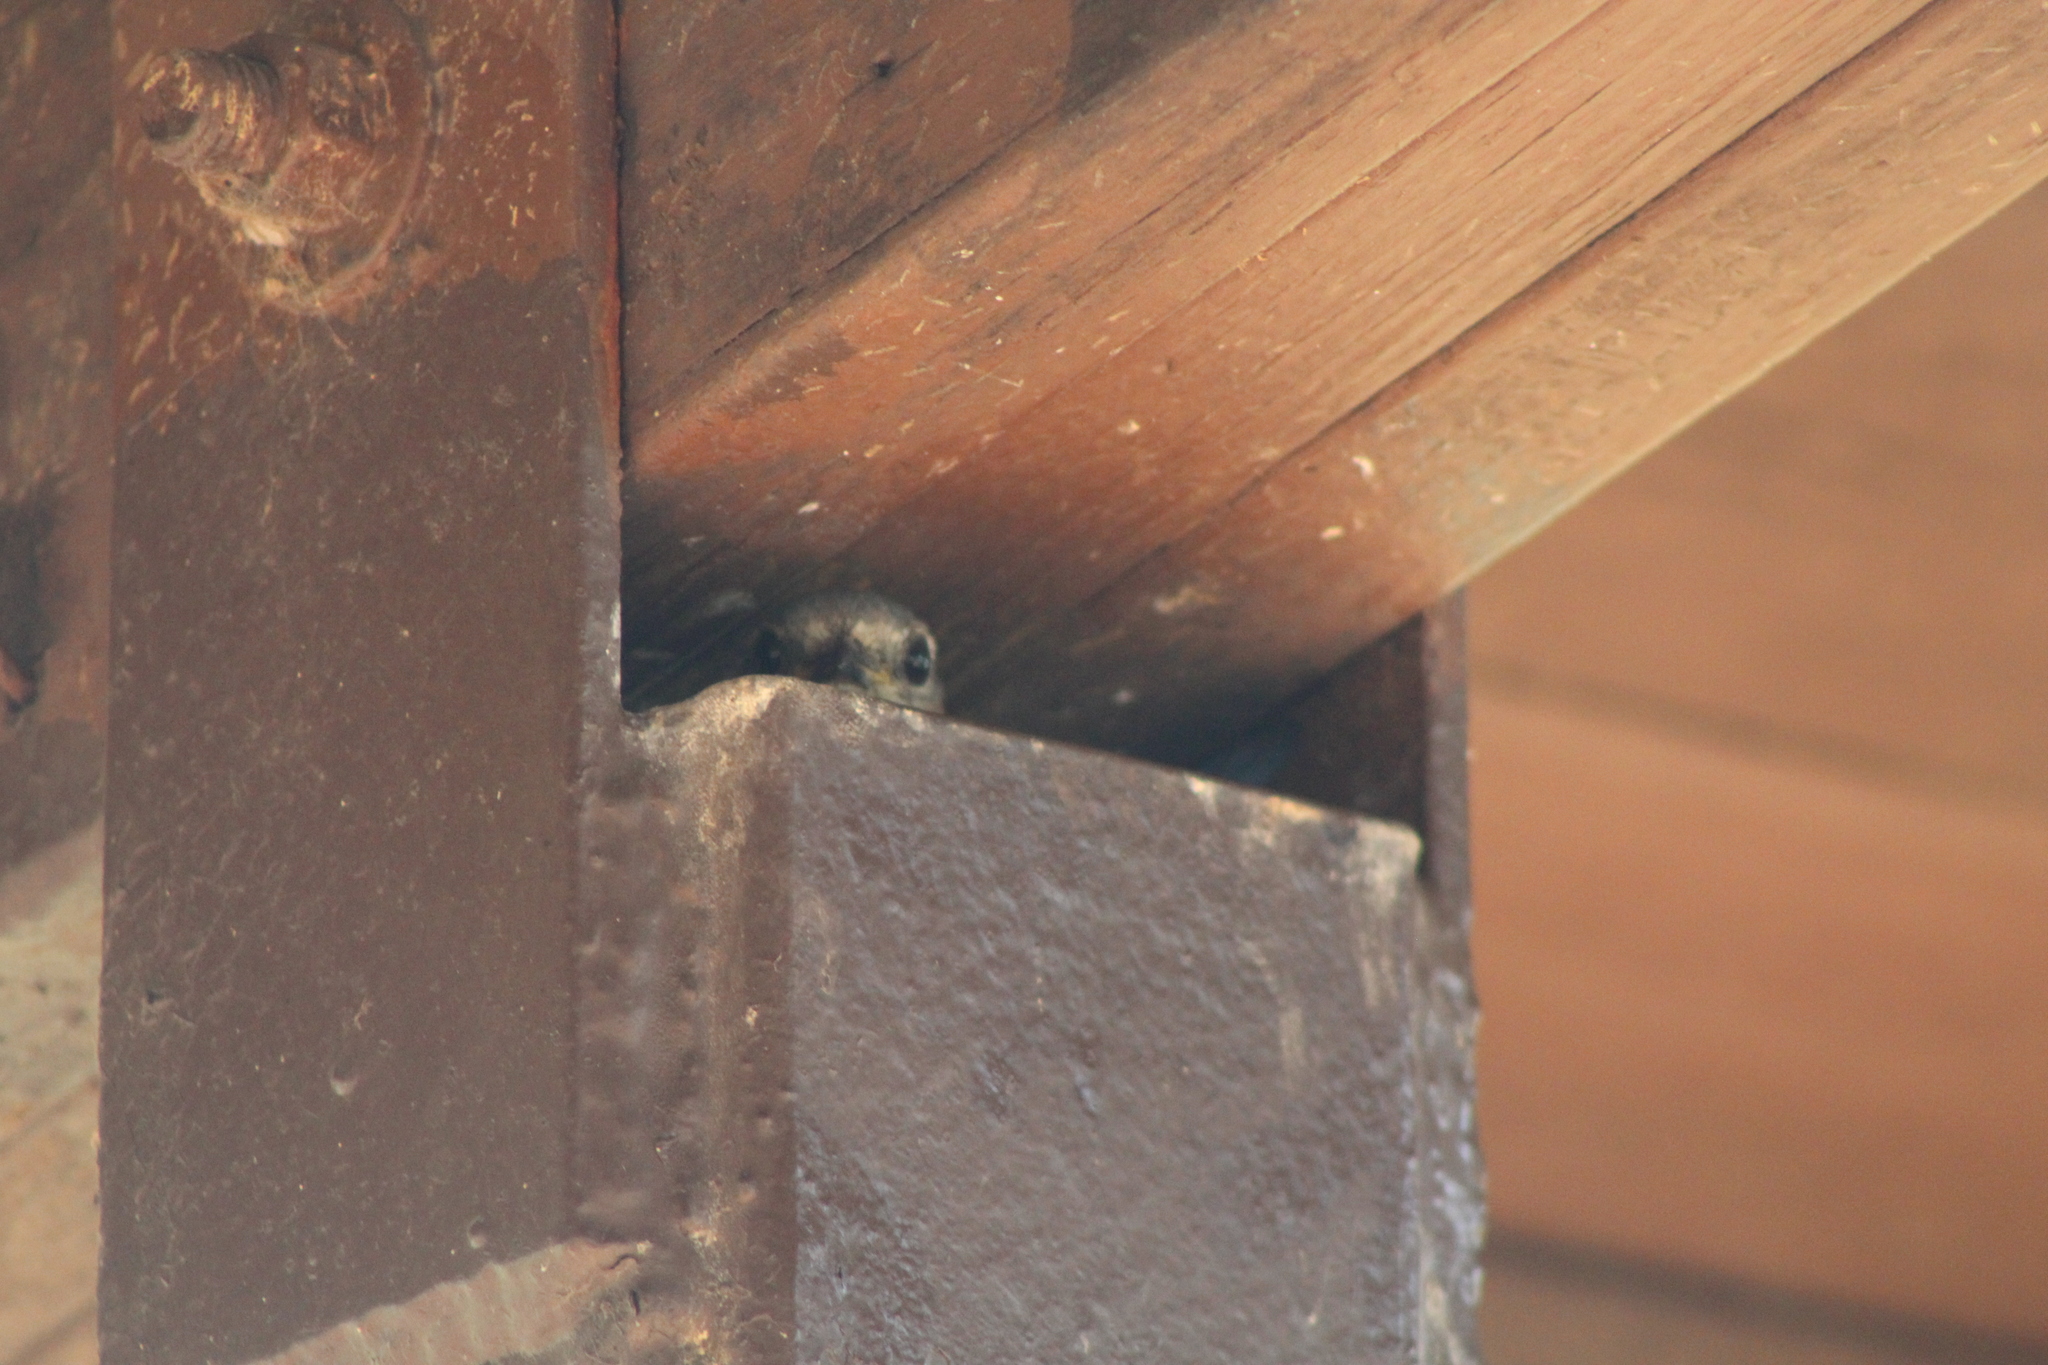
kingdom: Animalia
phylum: Chordata
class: Aves
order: Passeriformes
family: Turdidae
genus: Sialia
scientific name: Sialia sialis
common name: Eastern bluebird
